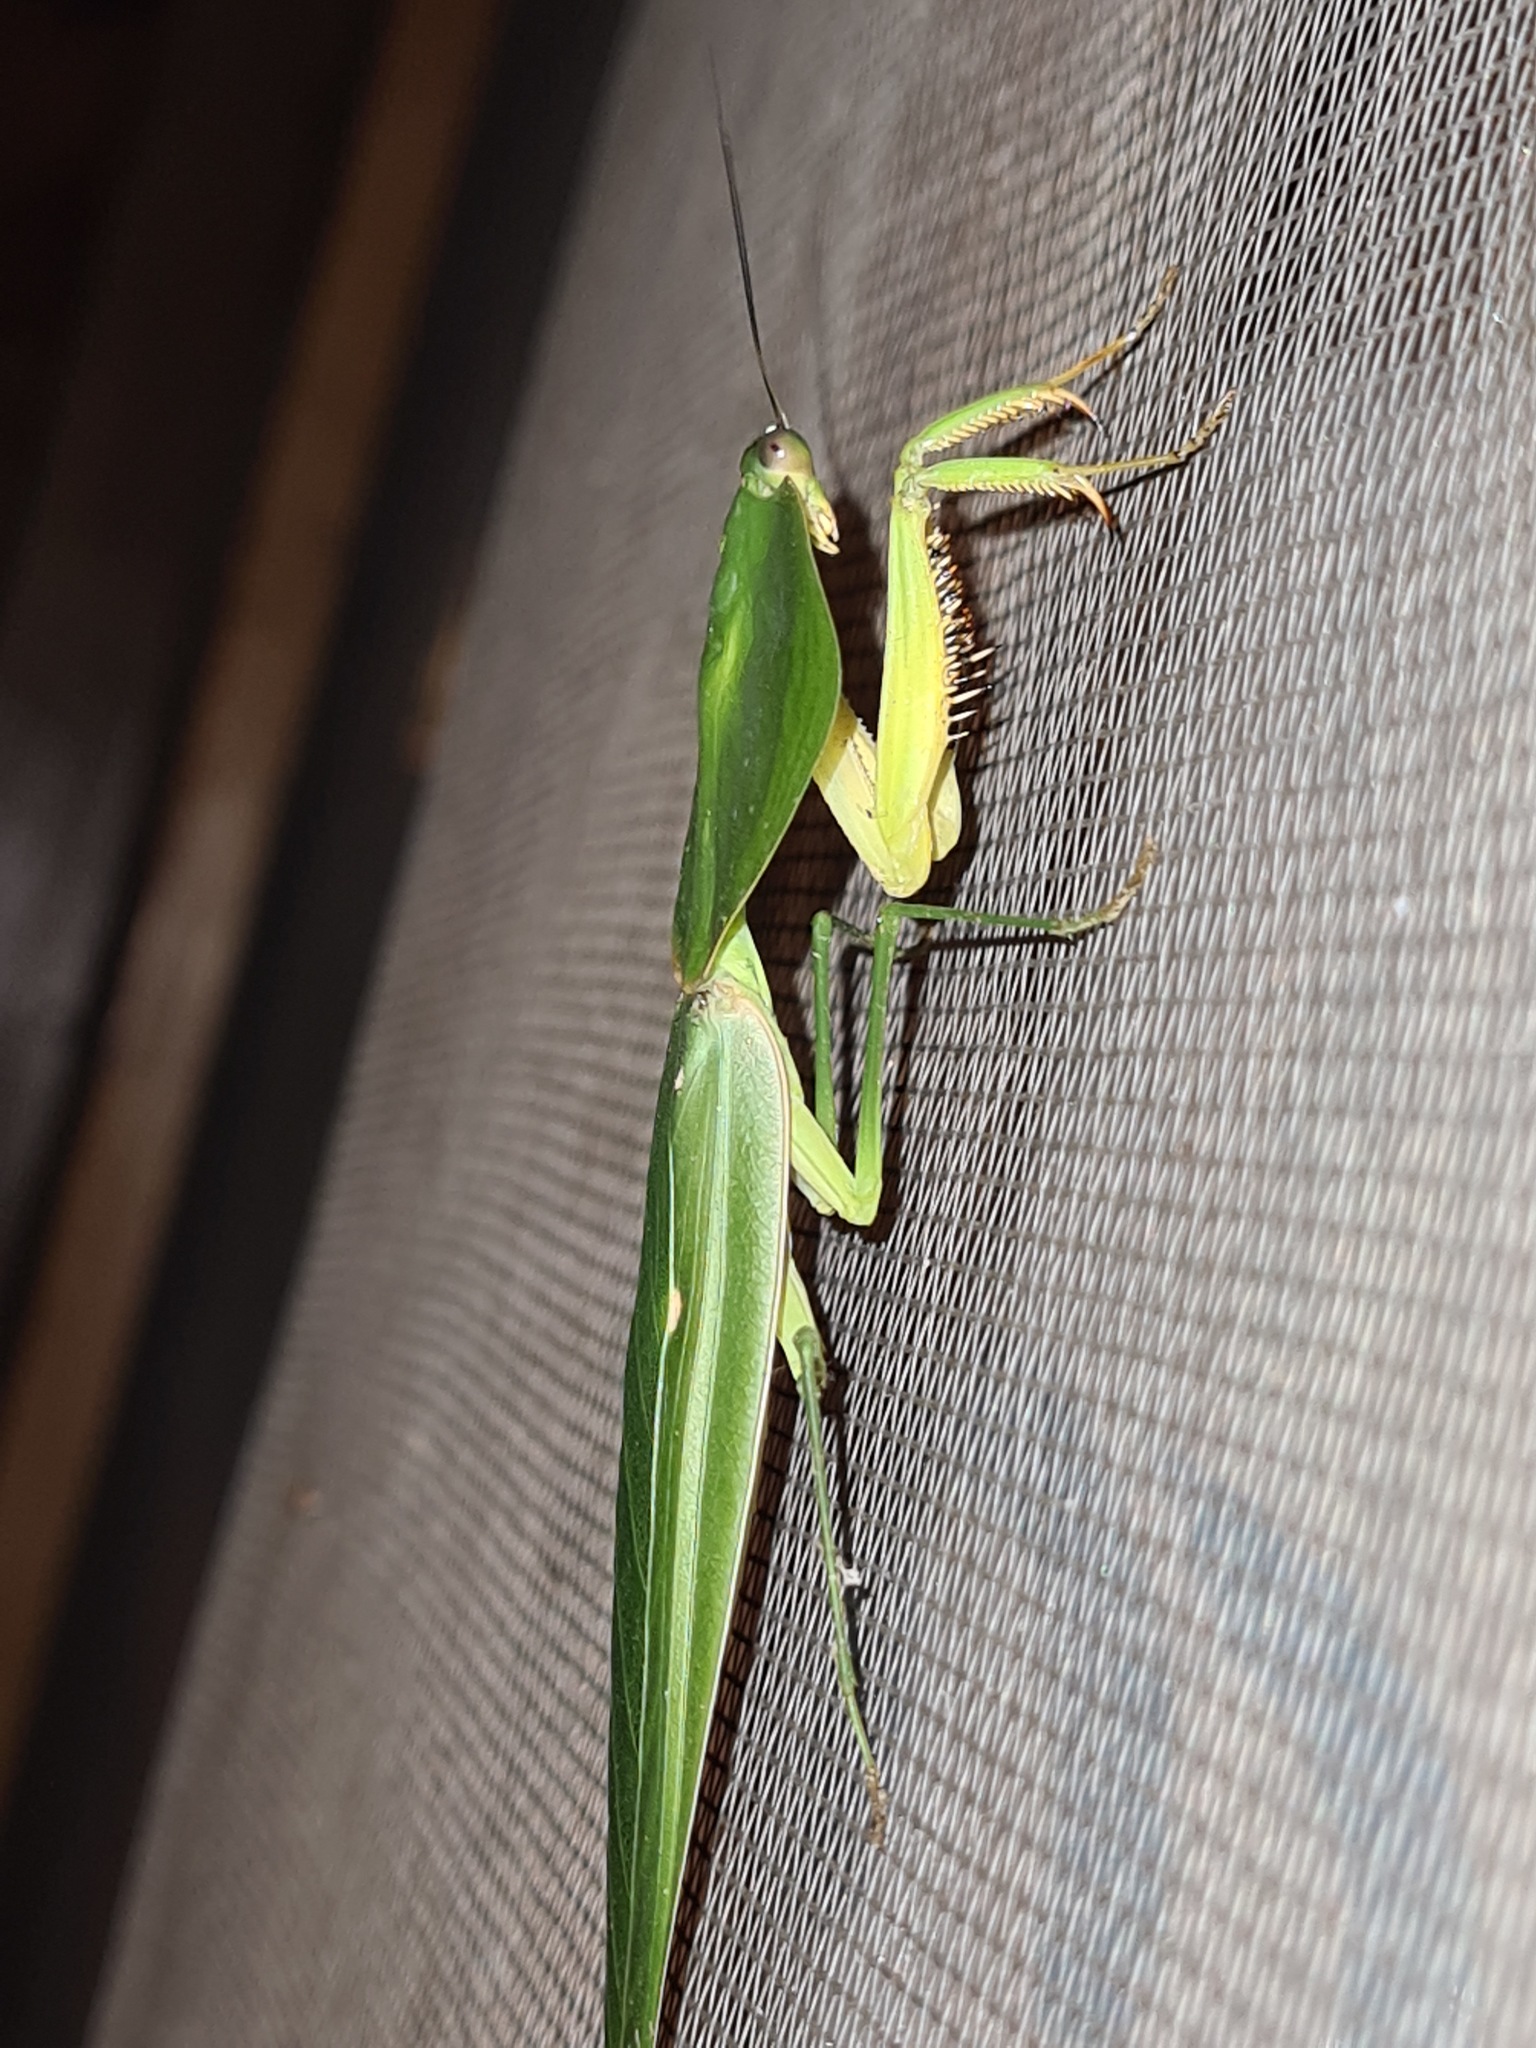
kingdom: Animalia
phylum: Arthropoda
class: Insecta
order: Mantodea
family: Mantidae
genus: Choeradodis
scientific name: Choeradodis rhombicollis
